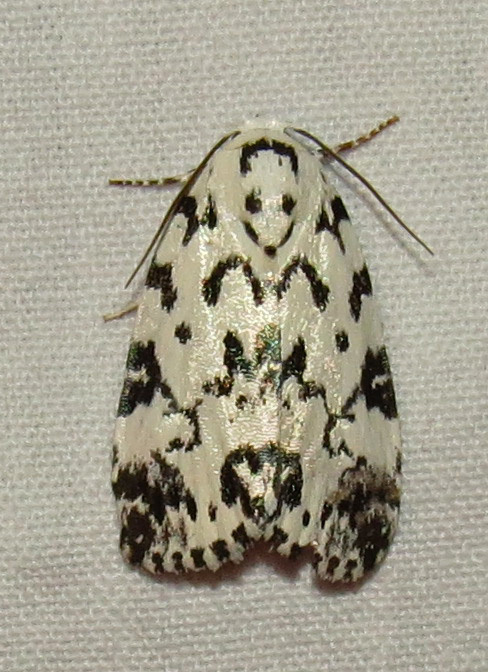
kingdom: Animalia
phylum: Arthropoda
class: Insecta
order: Lepidoptera
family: Noctuidae
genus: Polygrammate
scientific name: Polygrammate hebraeicum
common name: Hebrew moth
